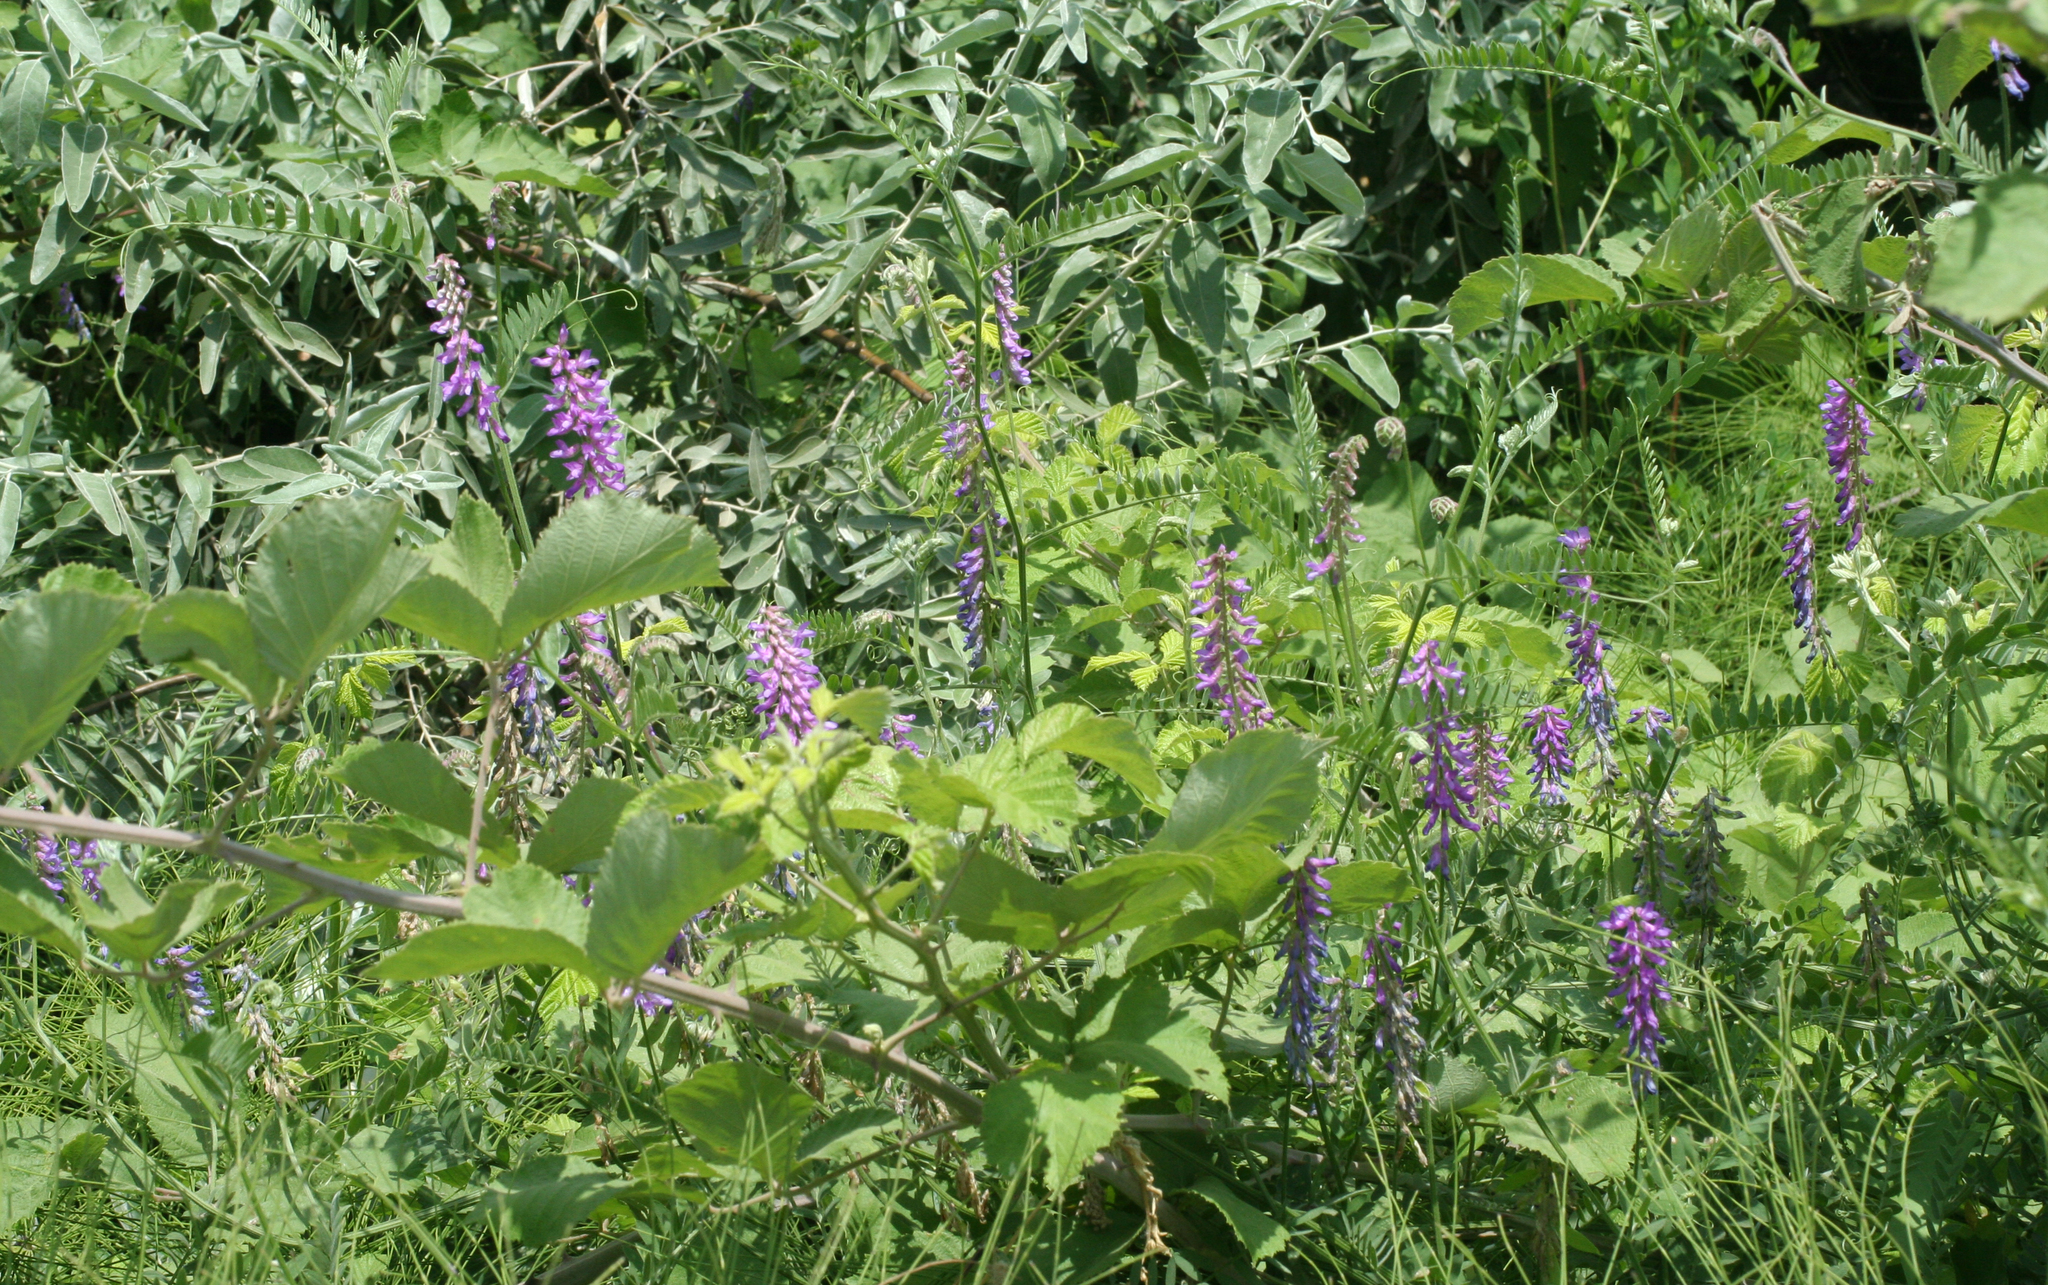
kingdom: Plantae
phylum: Tracheophyta
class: Magnoliopsida
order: Fabales
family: Fabaceae
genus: Vicia
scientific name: Vicia cracca
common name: Bird vetch
